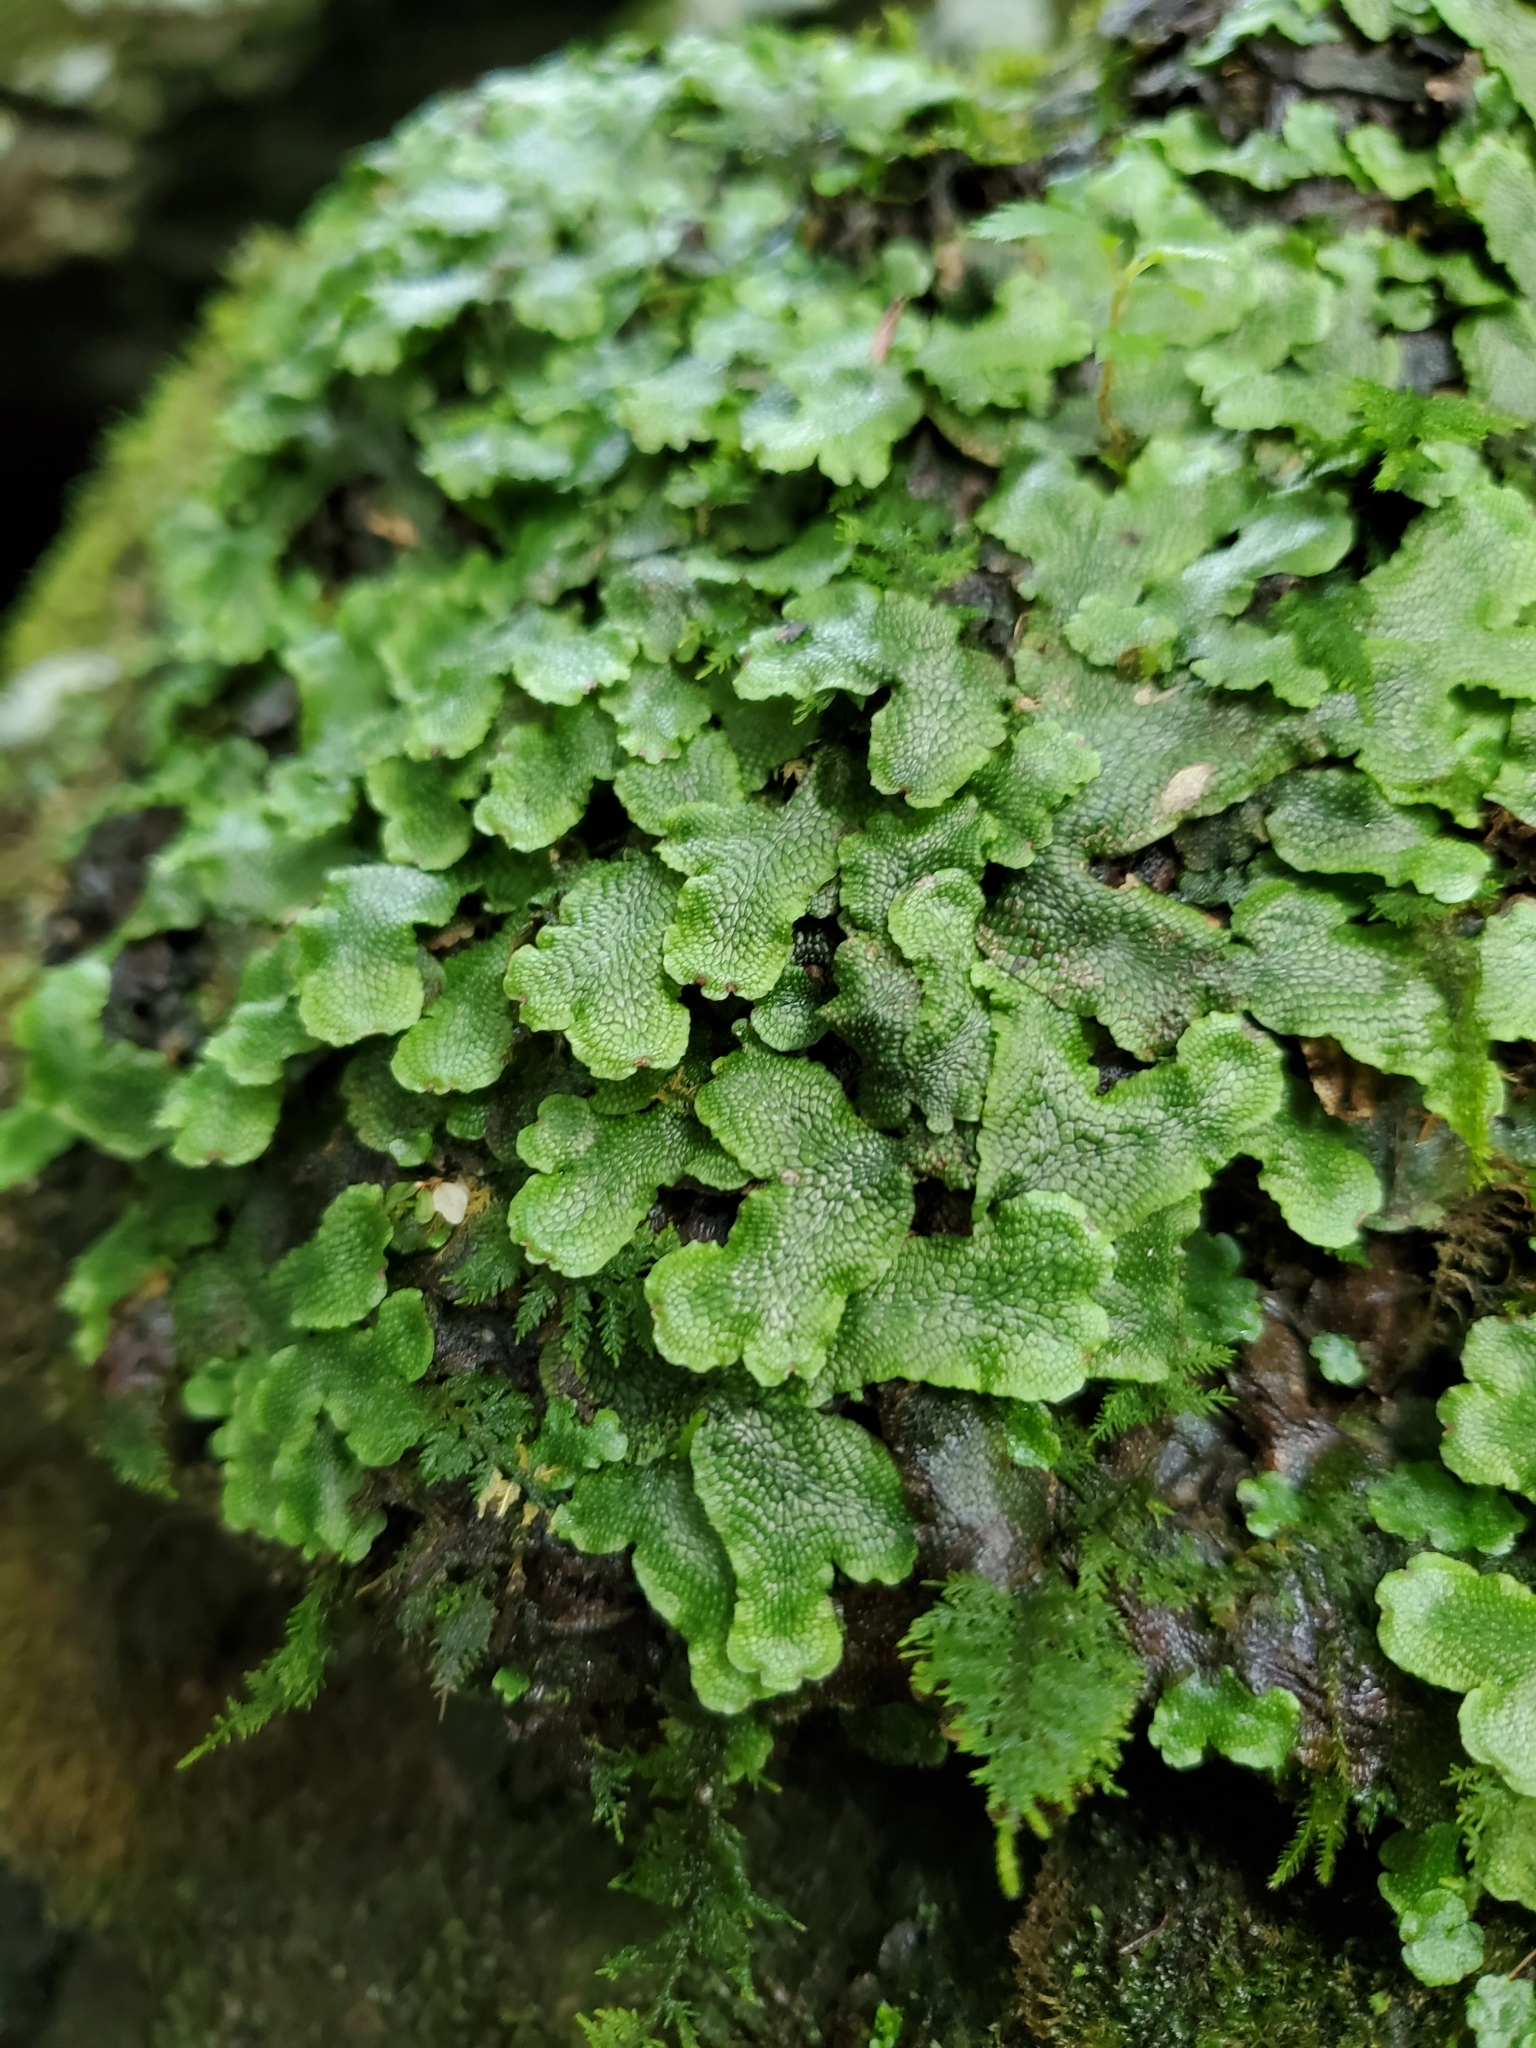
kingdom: Plantae
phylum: Marchantiophyta
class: Marchantiopsida
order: Marchantiales
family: Conocephalaceae
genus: Conocephalum
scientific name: Conocephalum salebrosum
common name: Cat-tongue liverwort
